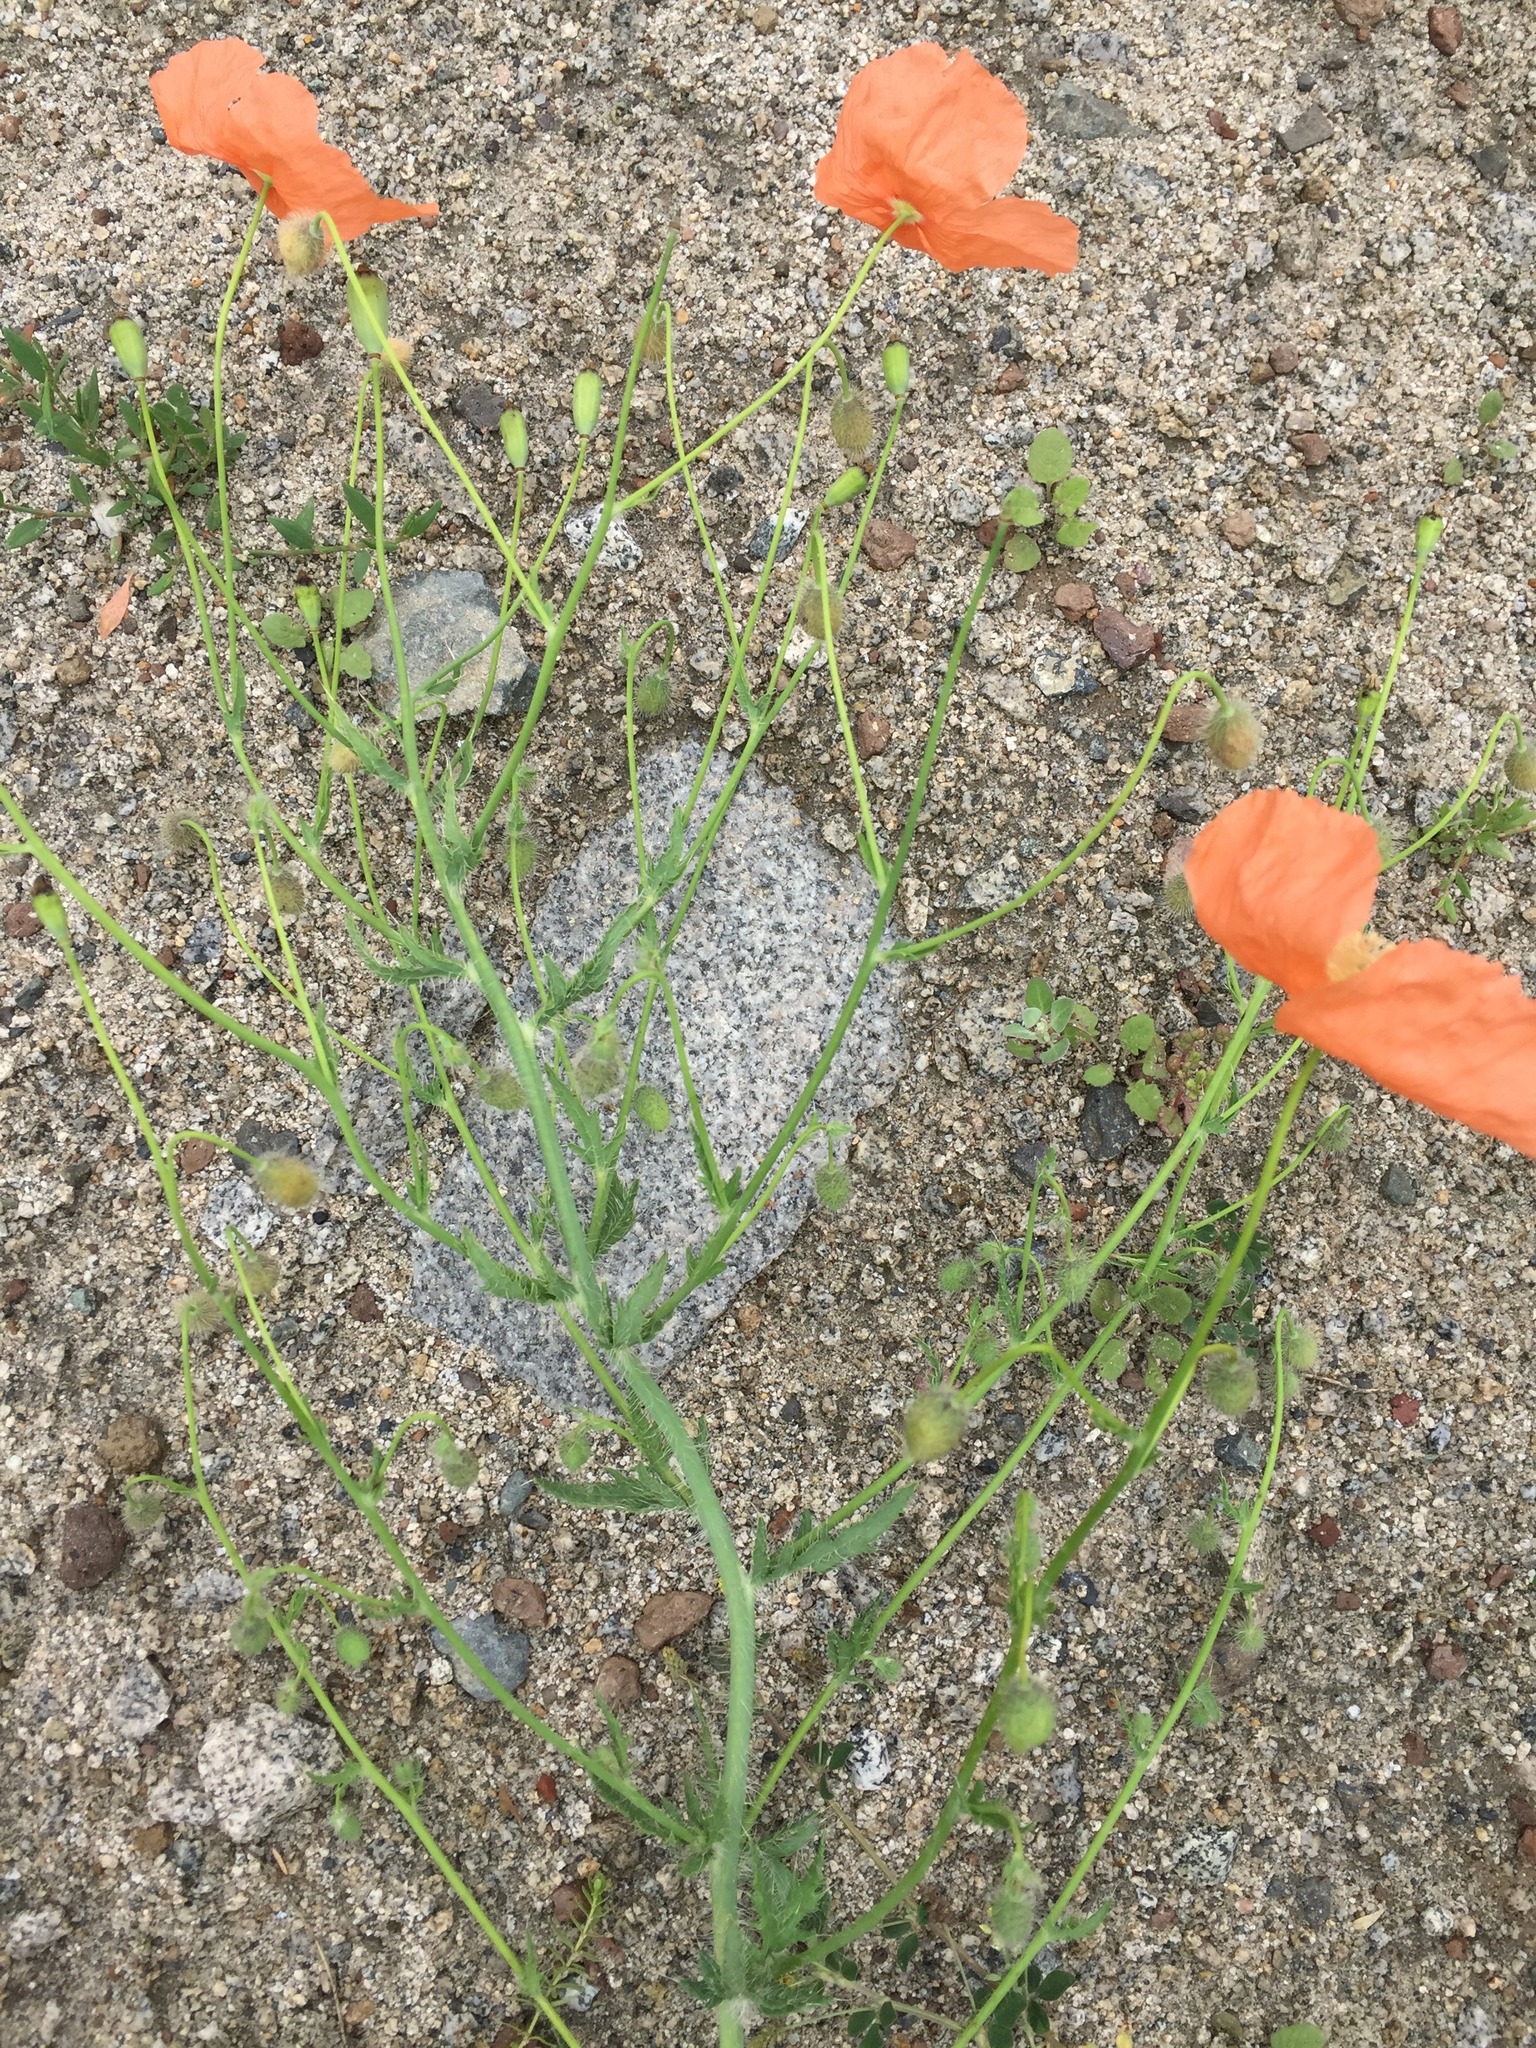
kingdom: Plantae
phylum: Tracheophyta
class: Magnoliopsida
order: Ranunculales
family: Papaveraceae
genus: Papaver
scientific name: Papaver armeniacum
